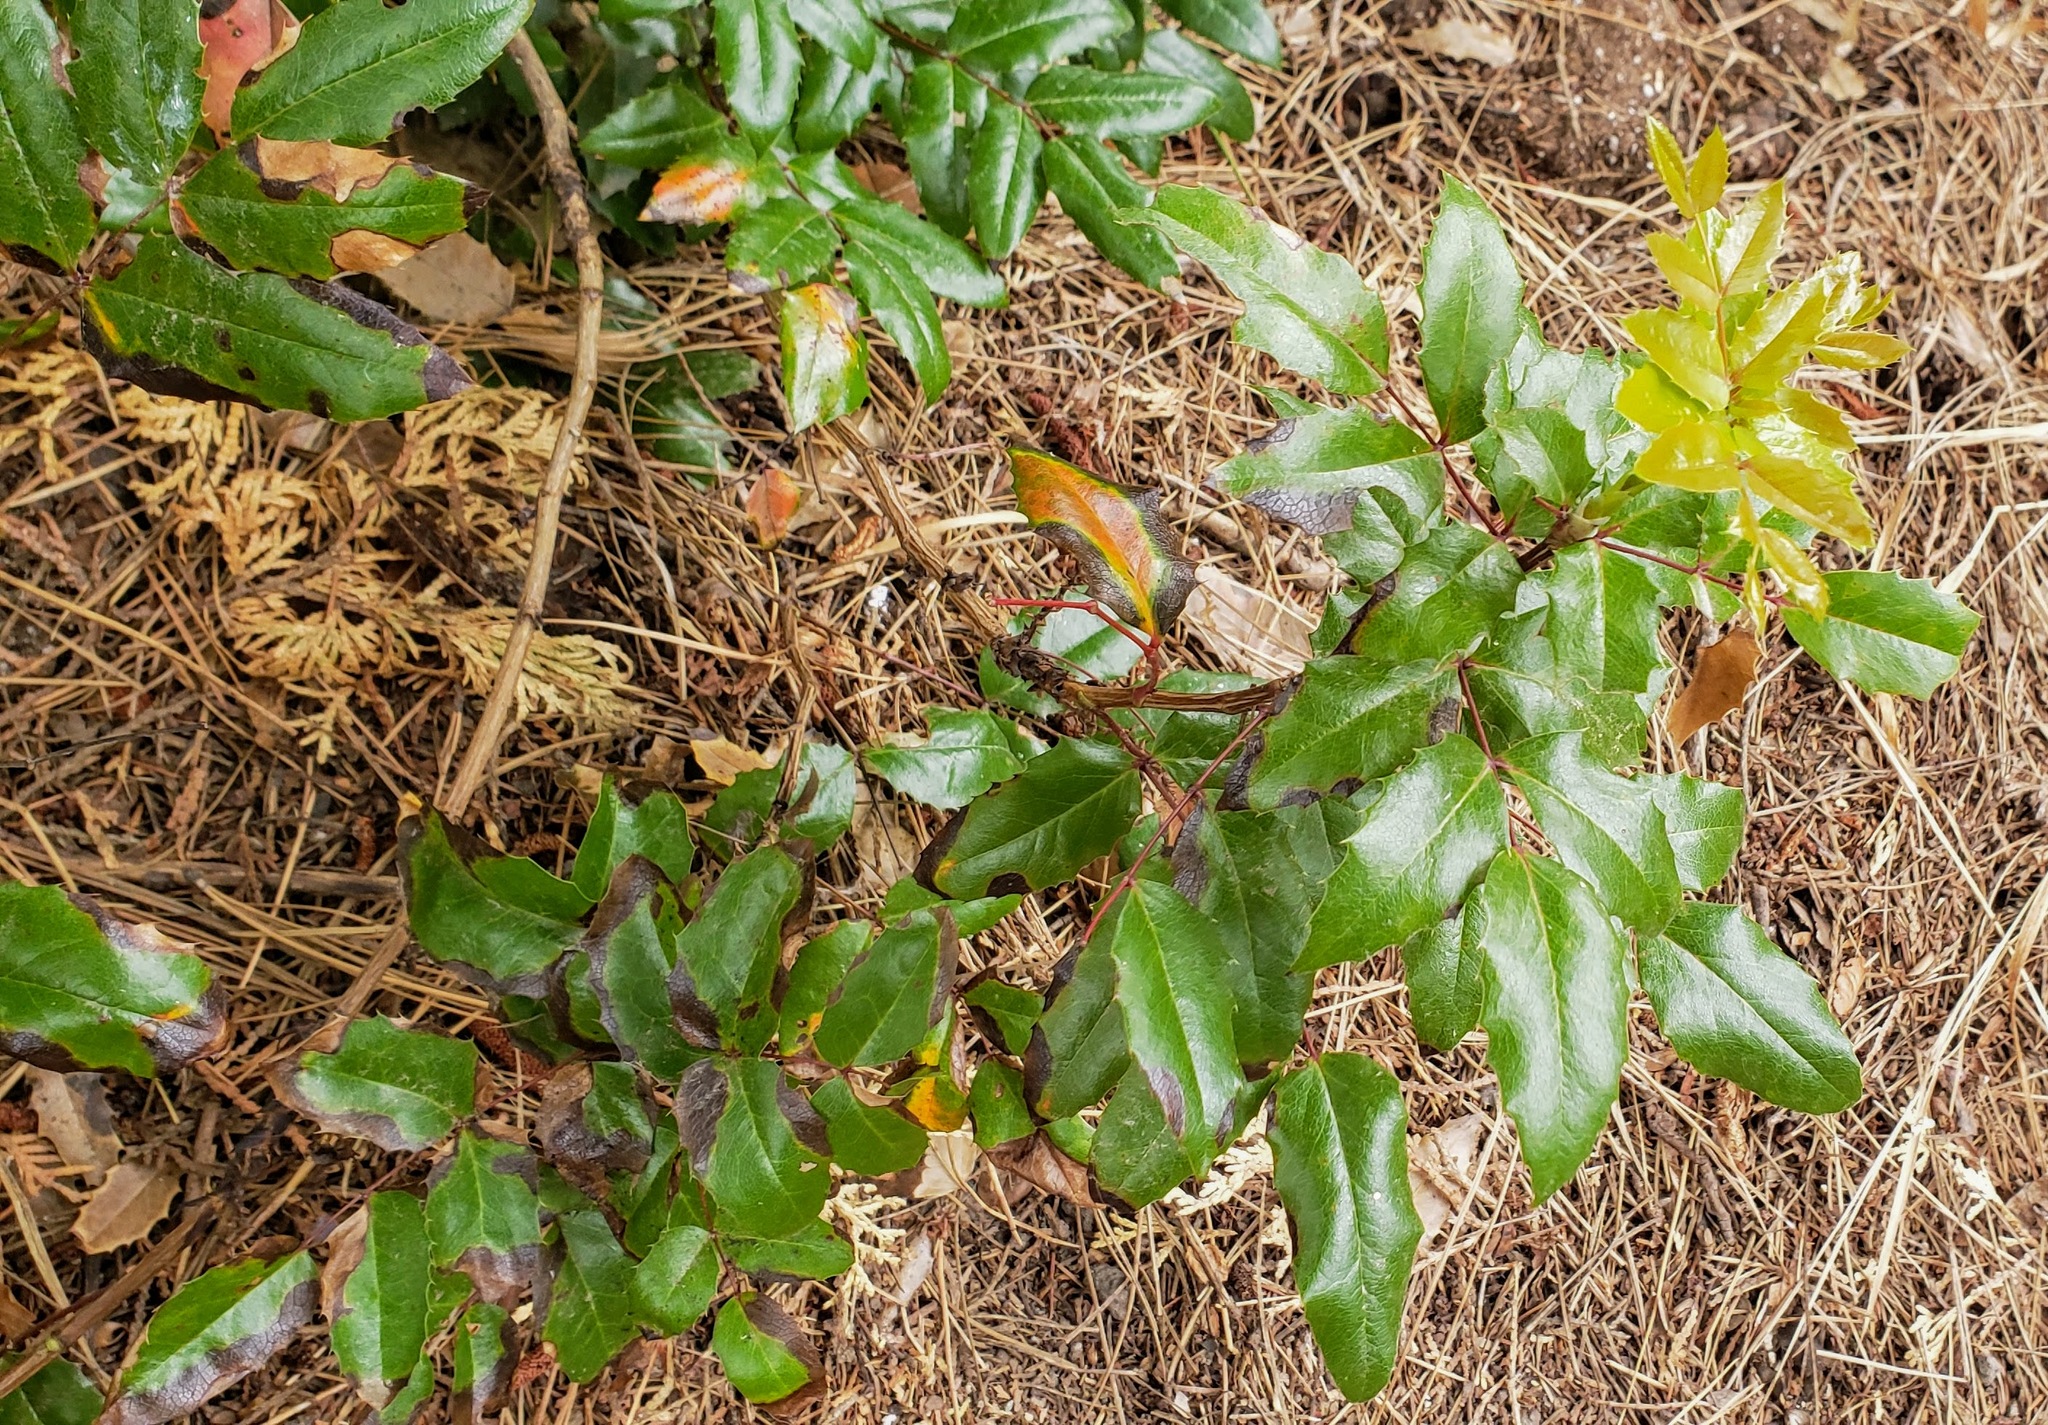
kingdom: Plantae
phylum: Tracheophyta
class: Magnoliopsida
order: Ranunculales
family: Berberidaceae
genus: Mahonia
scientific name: Mahonia aquifolium
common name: Oregon-grape
